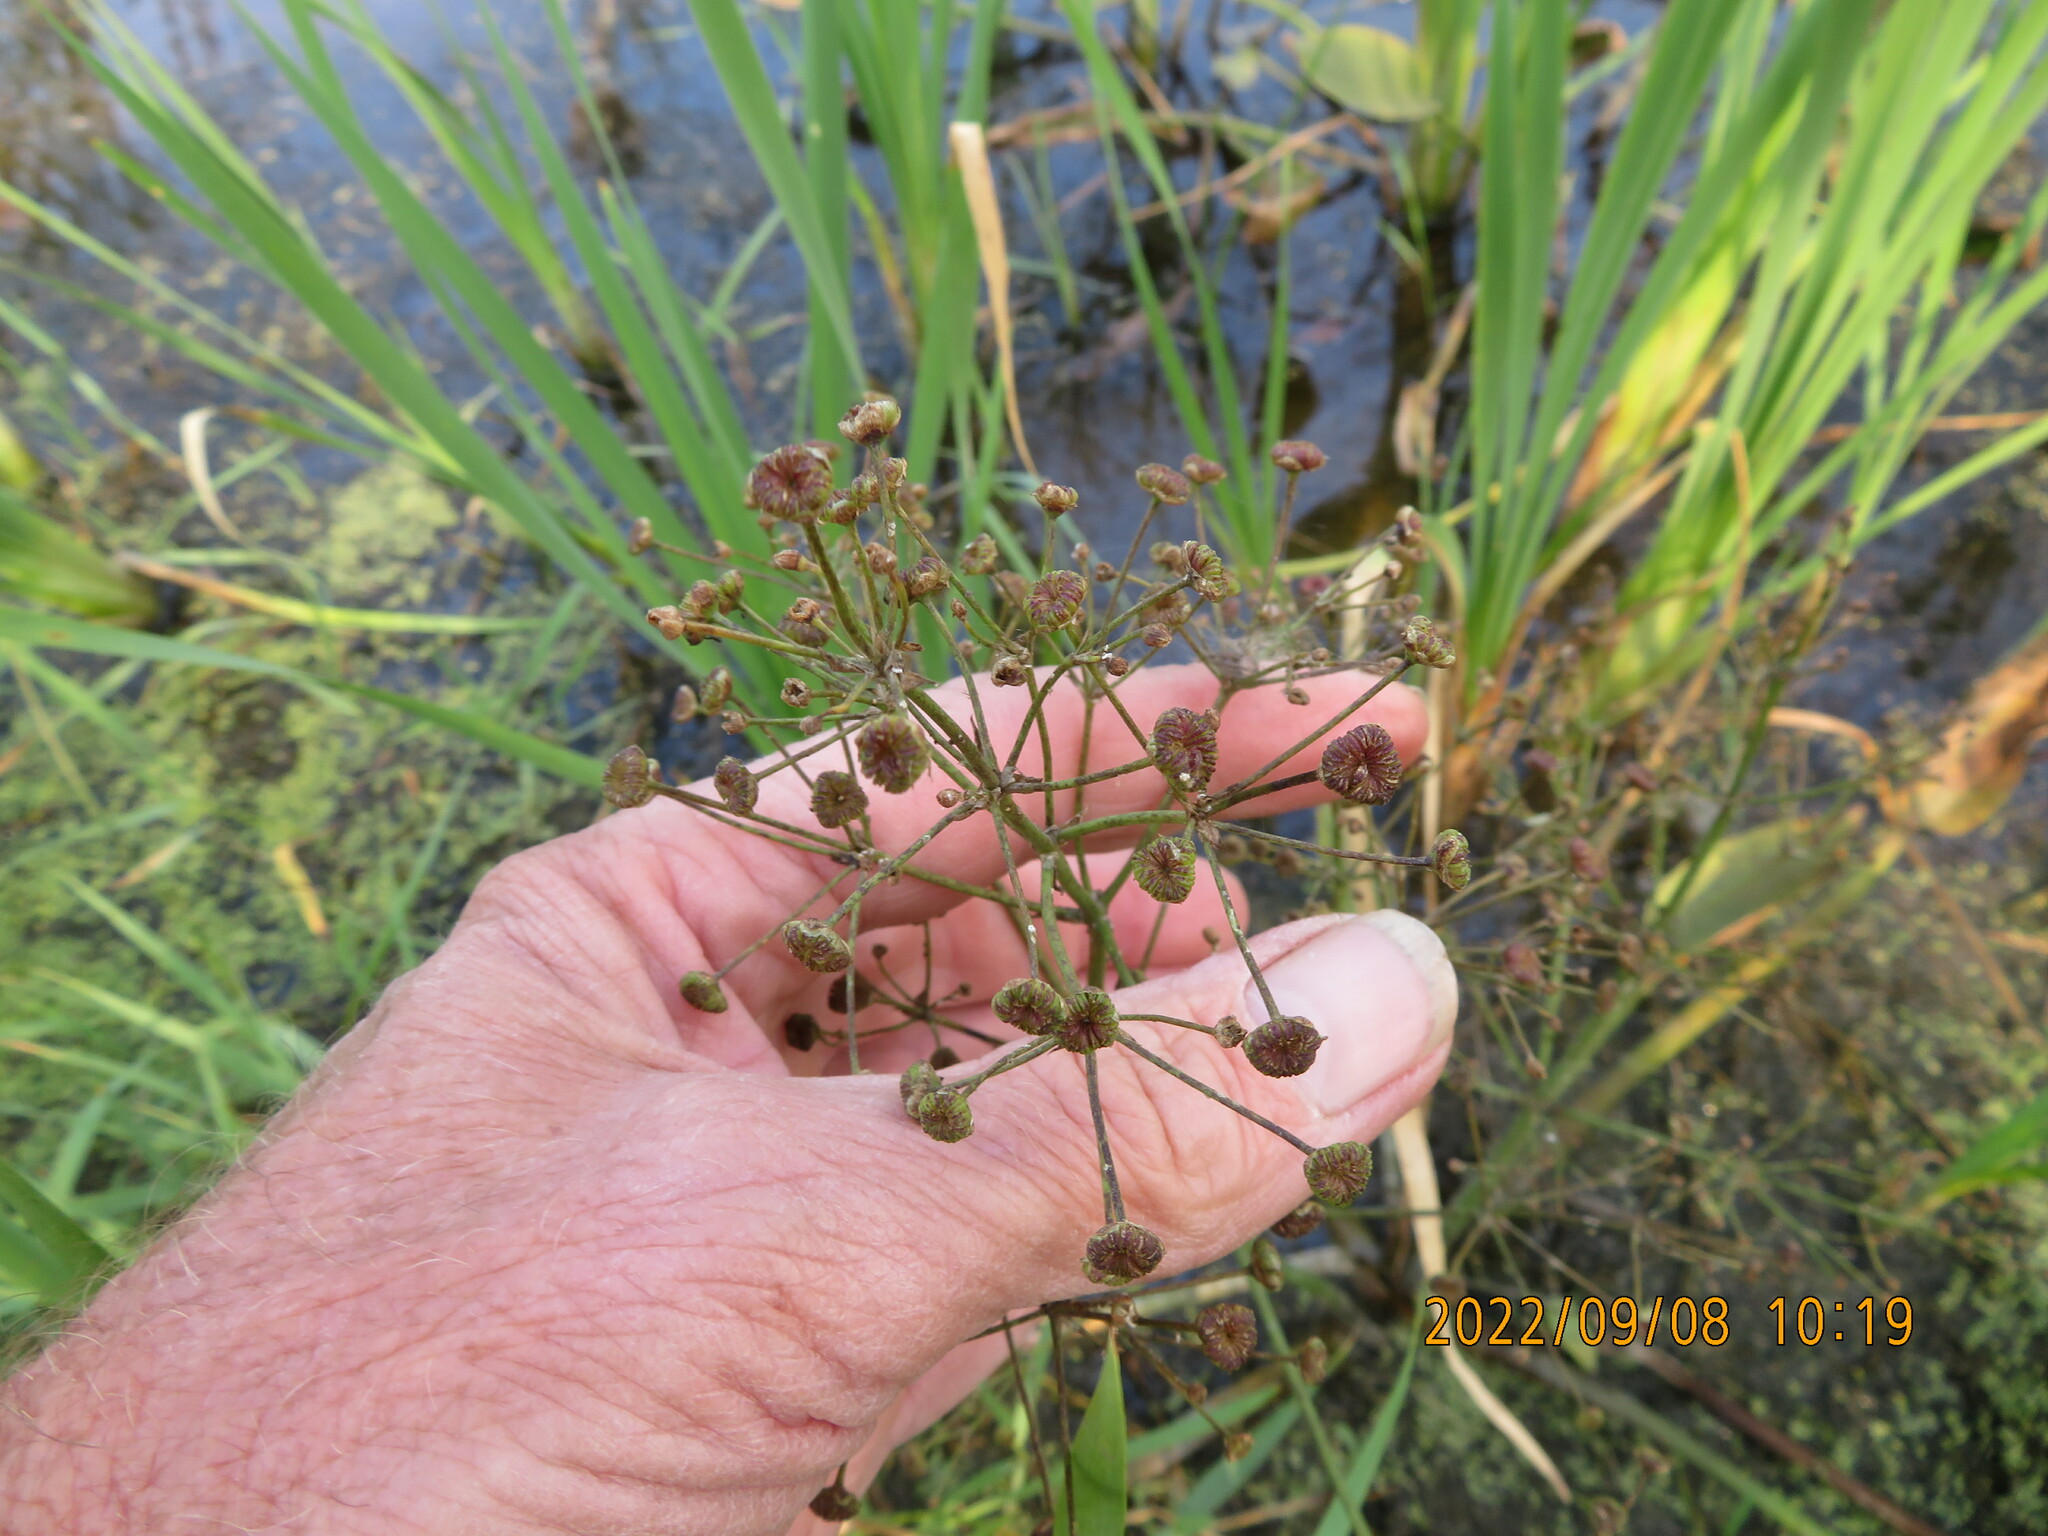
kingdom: Plantae
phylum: Tracheophyta
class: Liliopsida
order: Alismatales
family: Alismataceae
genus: Alisma
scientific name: Alisma triviale
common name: Northern water-plantain
